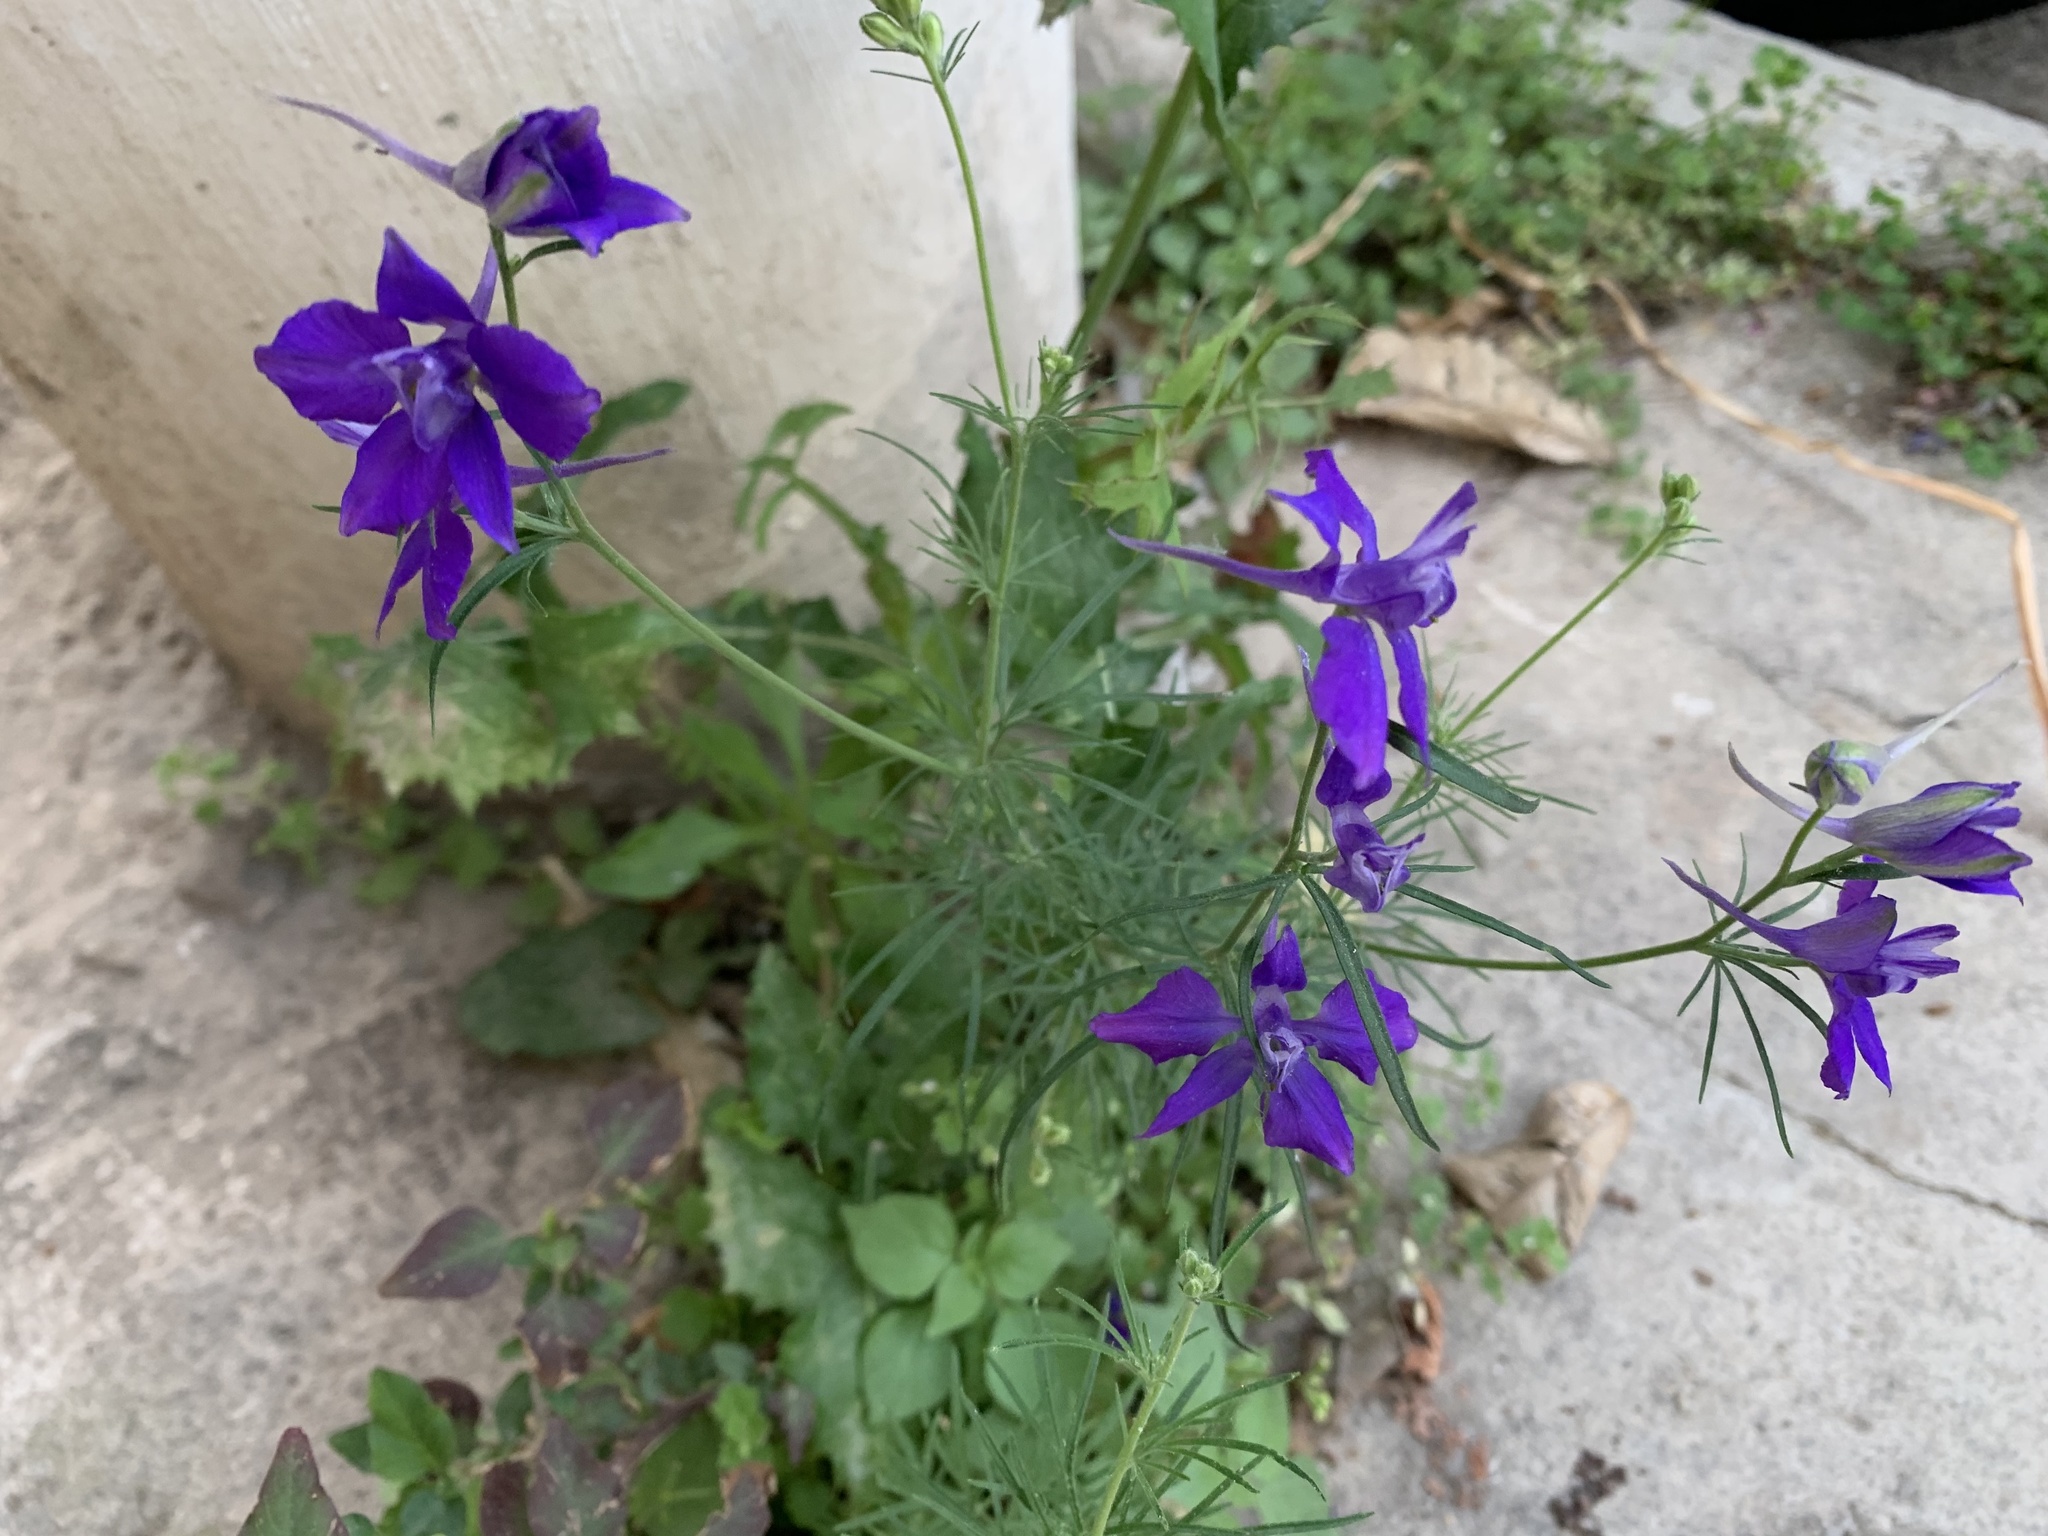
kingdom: Plantae
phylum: Tracheophyta
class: Magnoliopsida
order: Ranunculales
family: Ranunculaceae
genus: Delphinium
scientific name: Delphinium consolida
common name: Branching larkspur
